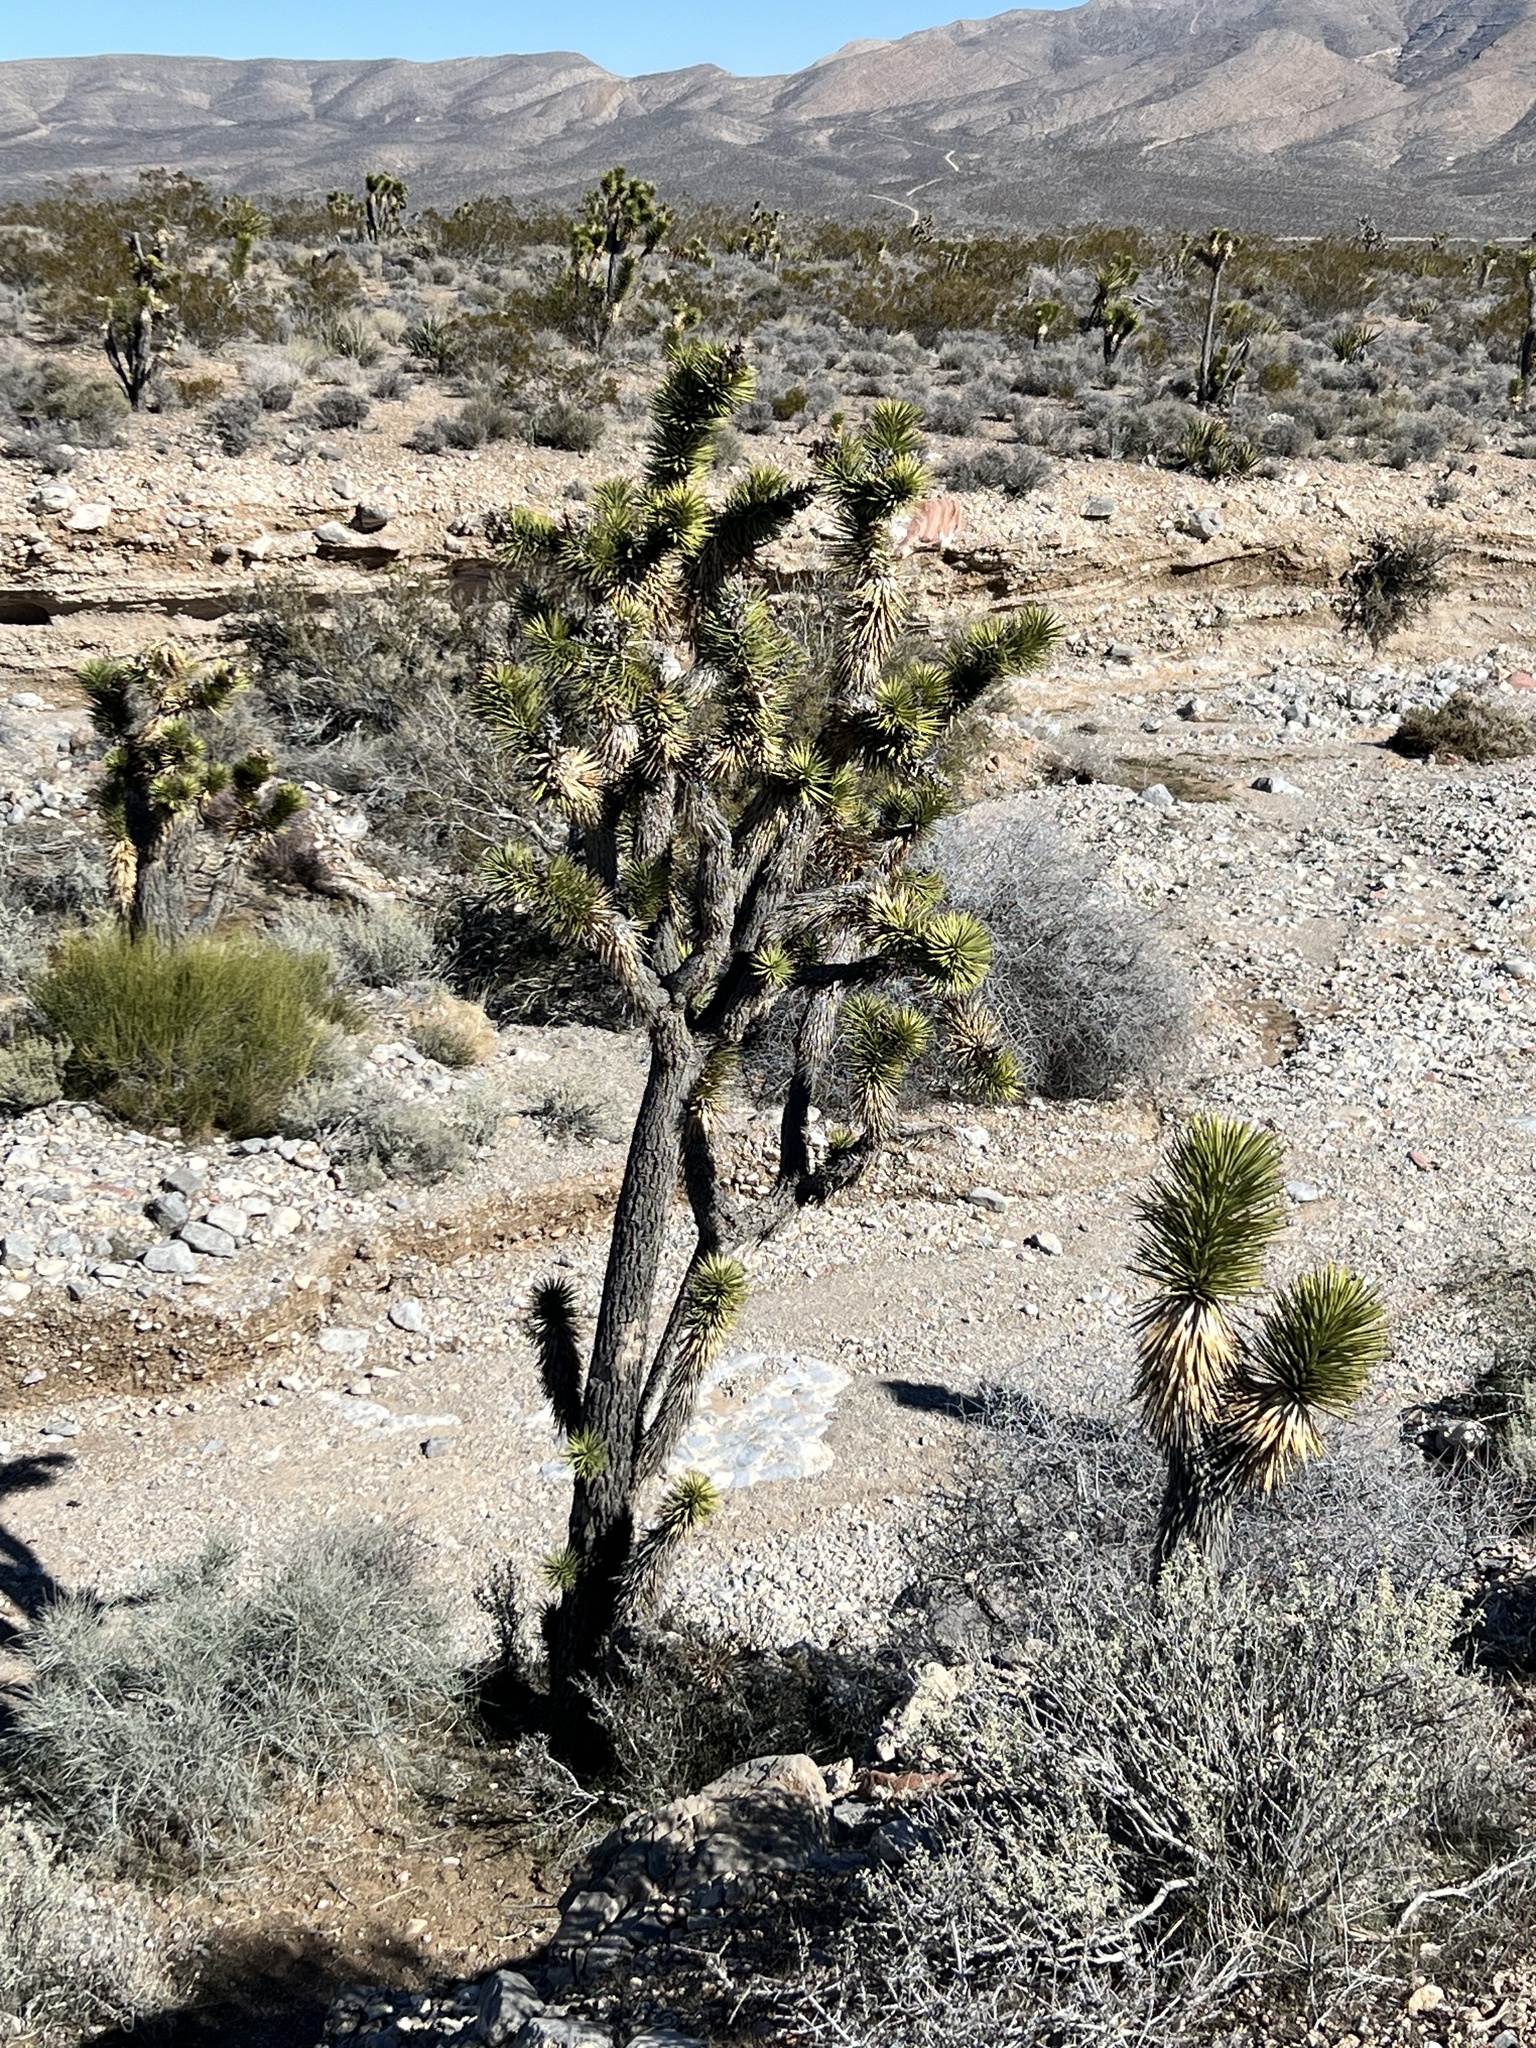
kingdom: Plantae
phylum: Tracheophyta
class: Liliopsida
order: Asparagales
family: Asparagaceae
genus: Yucca
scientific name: Yucca brevifolia
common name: Joshua tree
